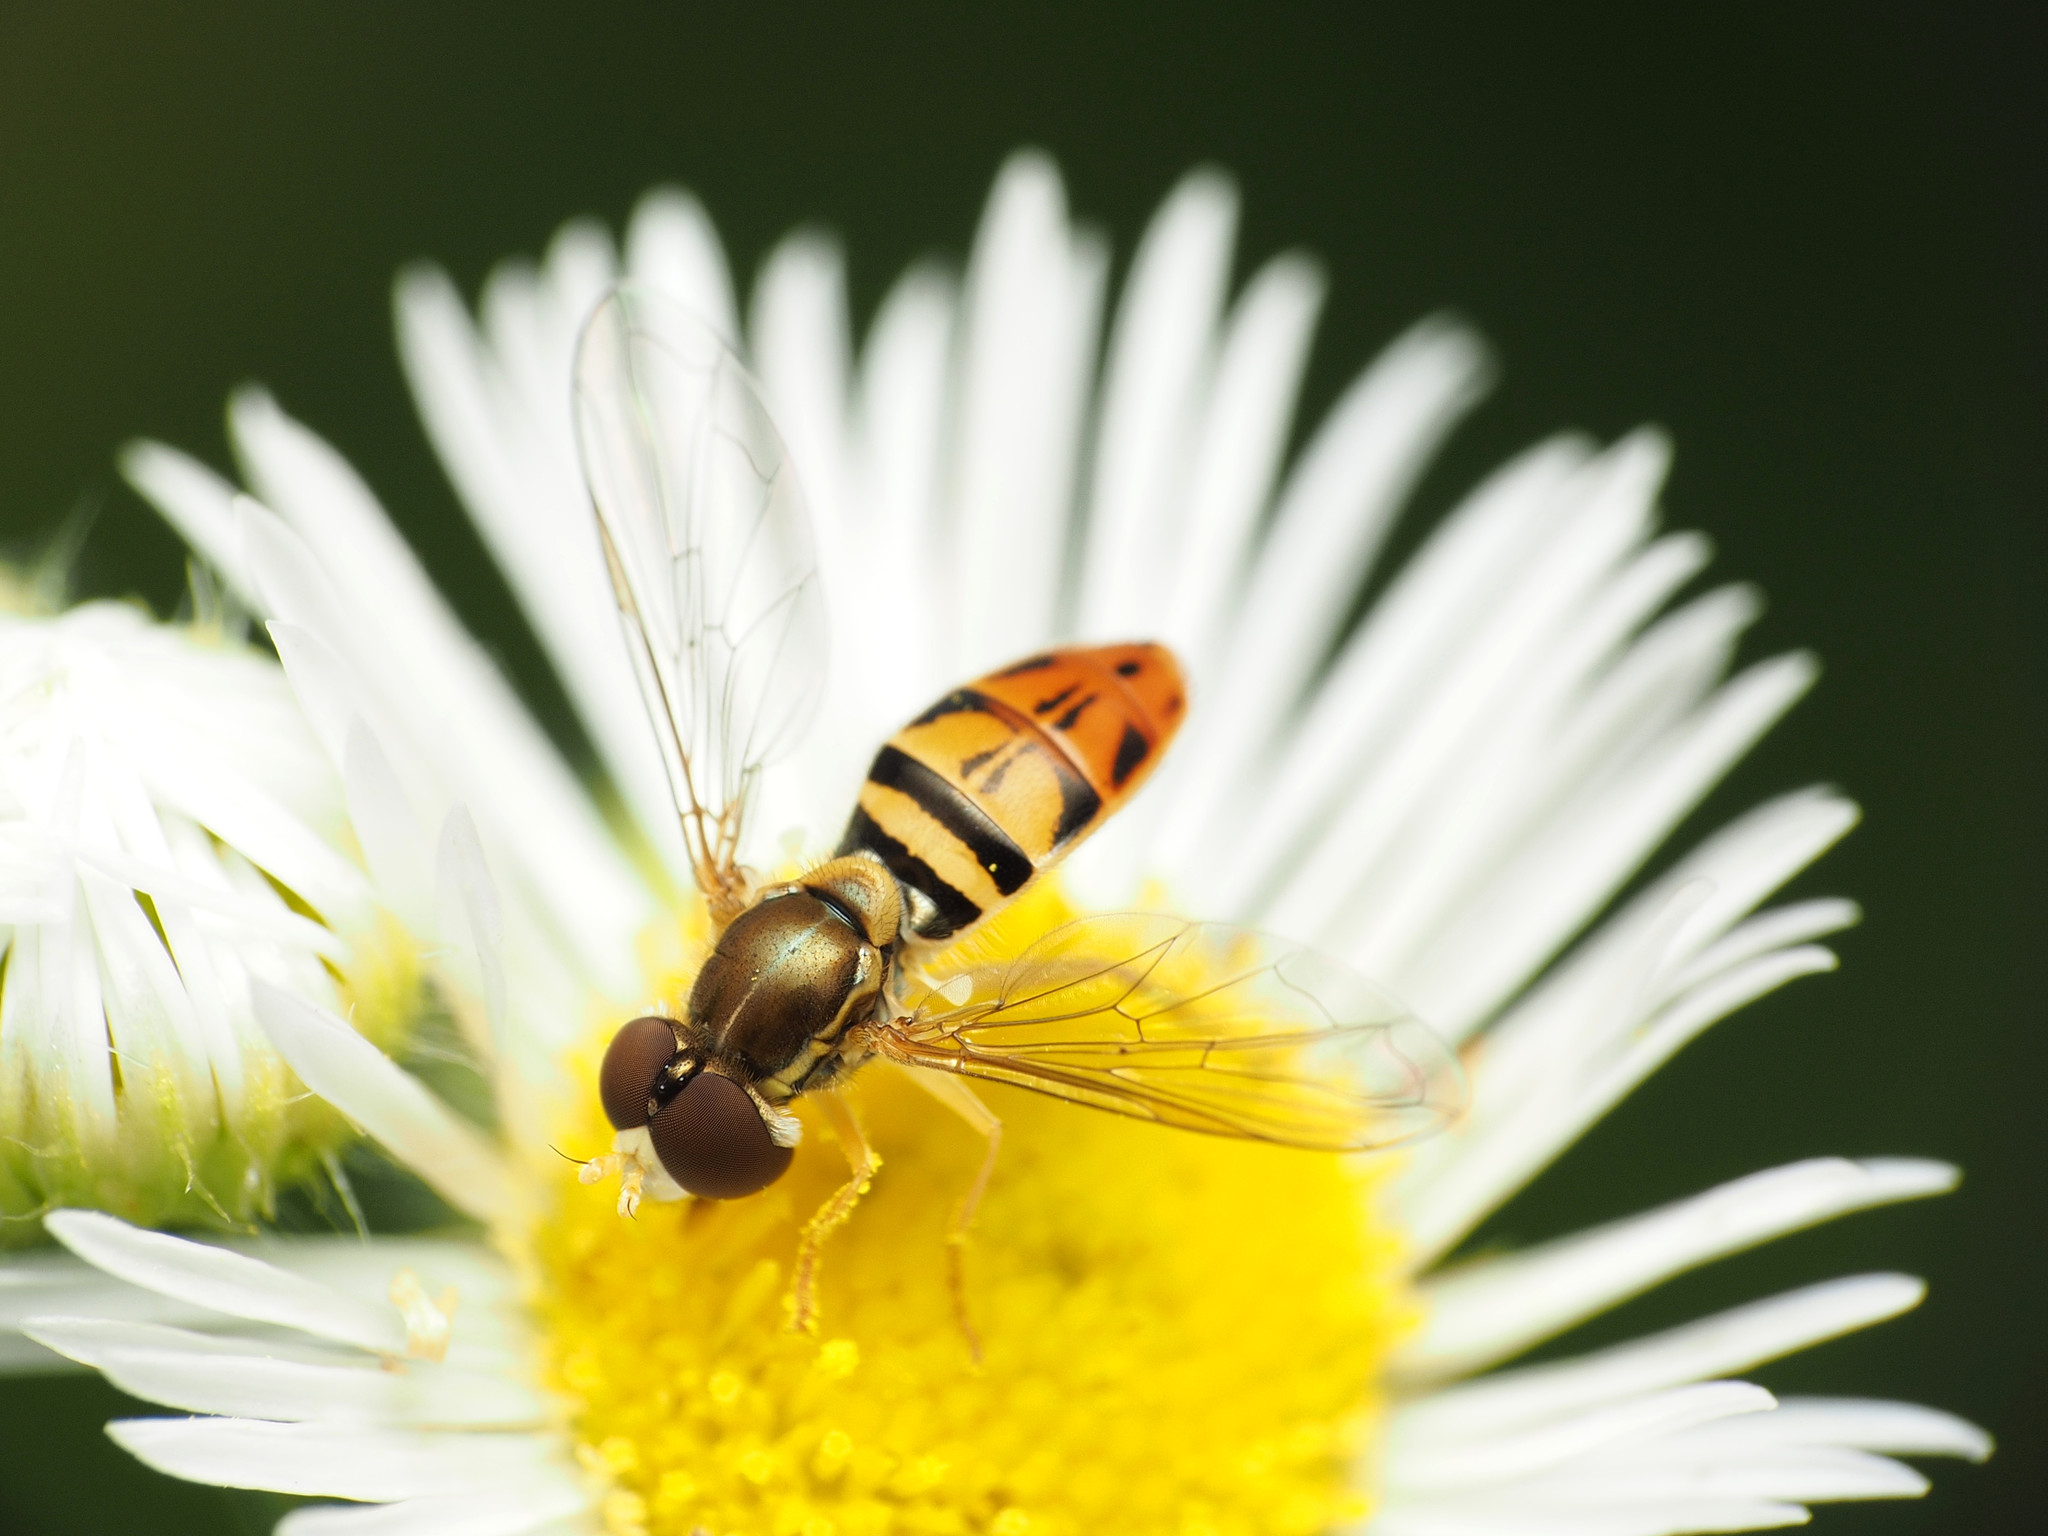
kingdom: Animalia
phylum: Arthropoda
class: Insecta
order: Diptera
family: Syrphidae
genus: Toxomerus
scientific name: Toxomerus marginatus
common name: Syrphid fly
